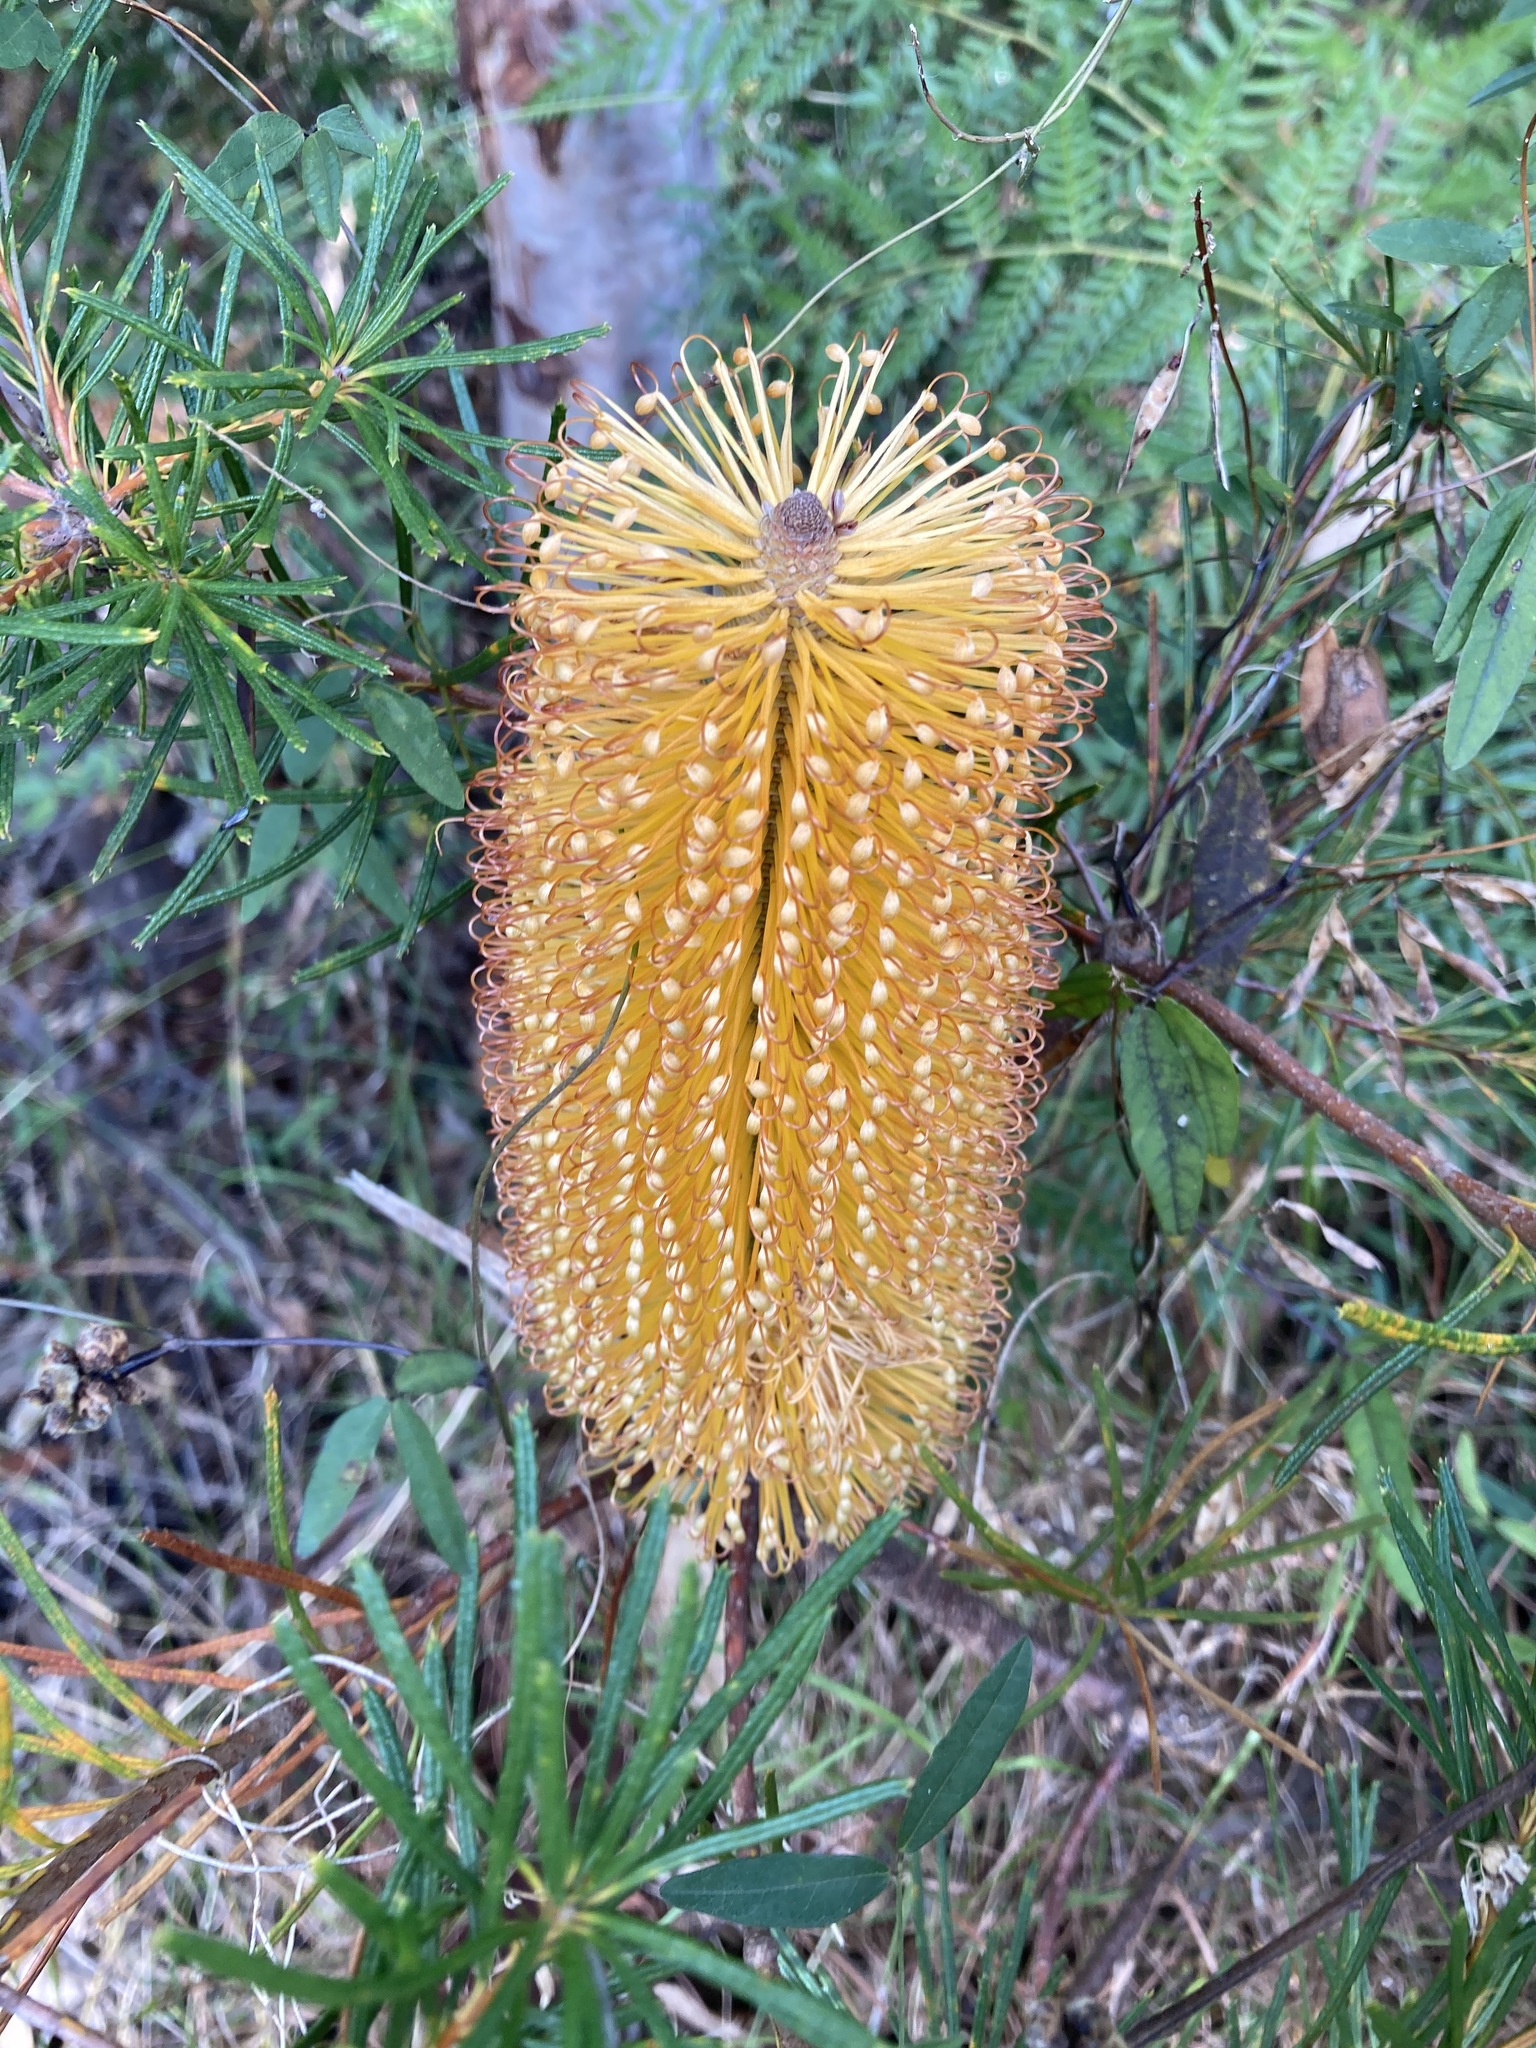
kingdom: Plantae
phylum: Tracheophyta
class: Magnoliopsida
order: Proteales
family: Proteaceae
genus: Banksia
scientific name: Banksia spinulosa
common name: Hairpin banksia
